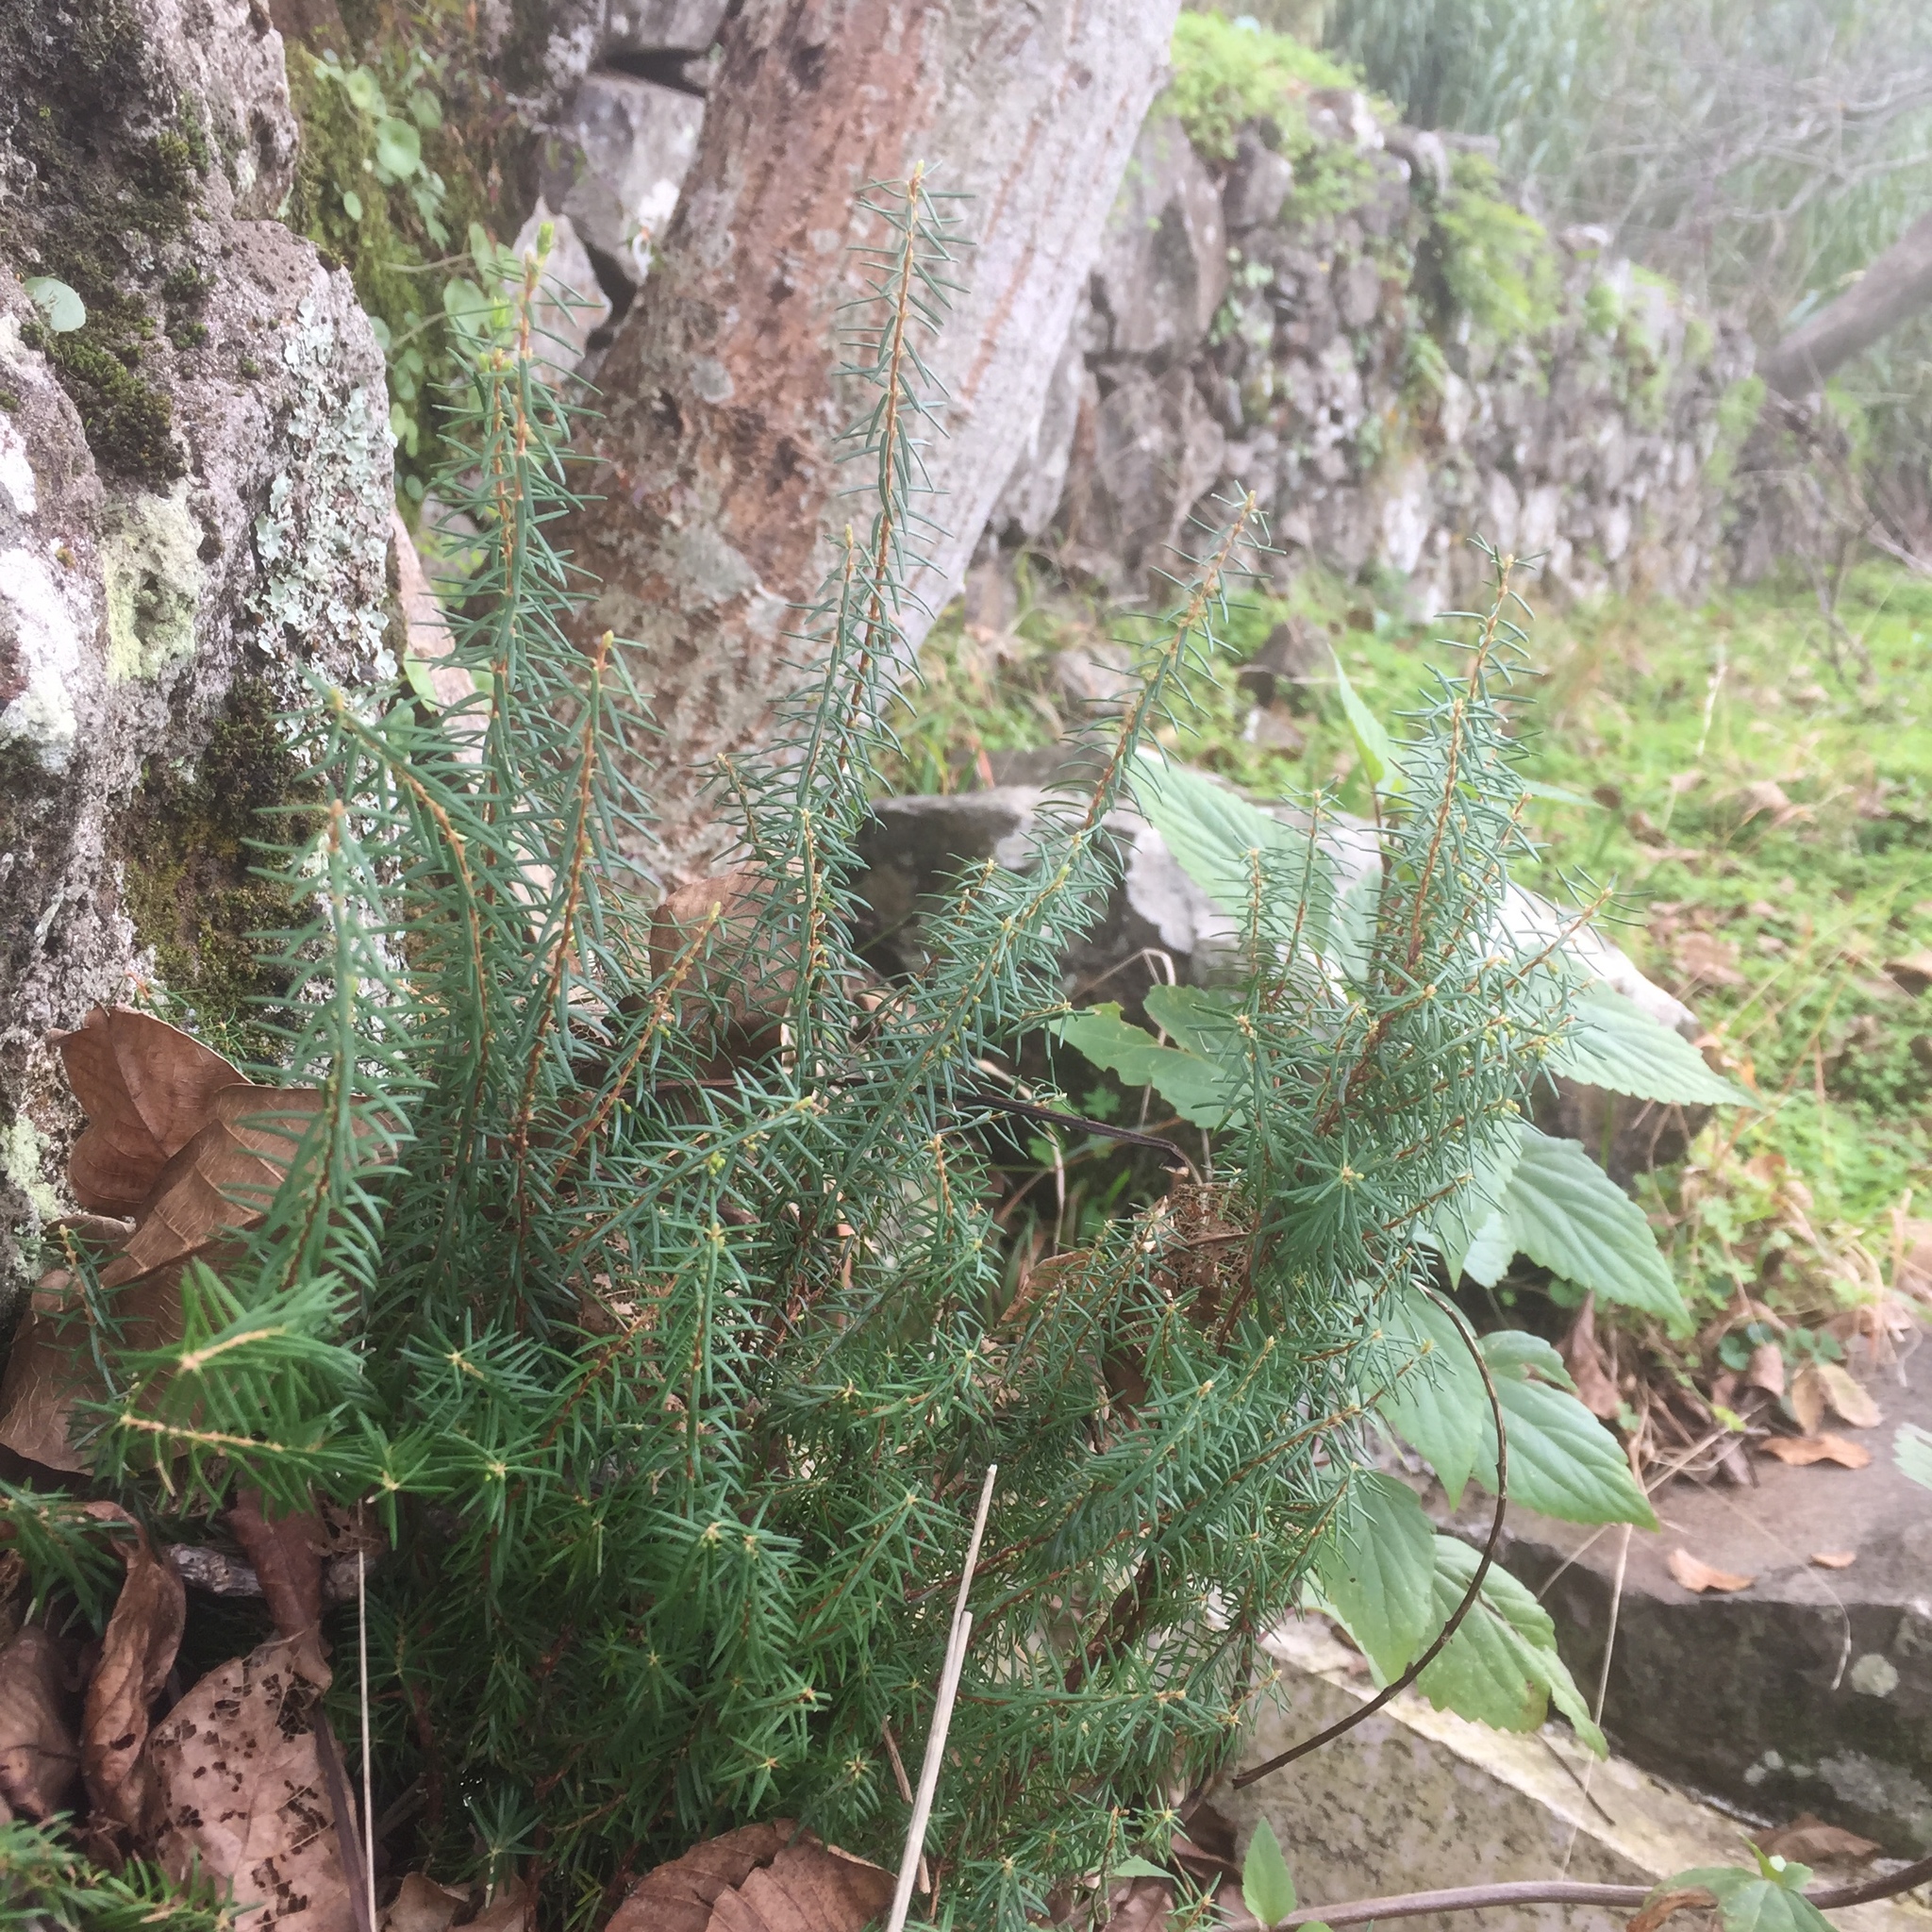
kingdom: Plantae
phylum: Tracheophyta
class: Magnoliopsida
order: Ericales
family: Ericaceae
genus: Erica
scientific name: Erica platycodon
